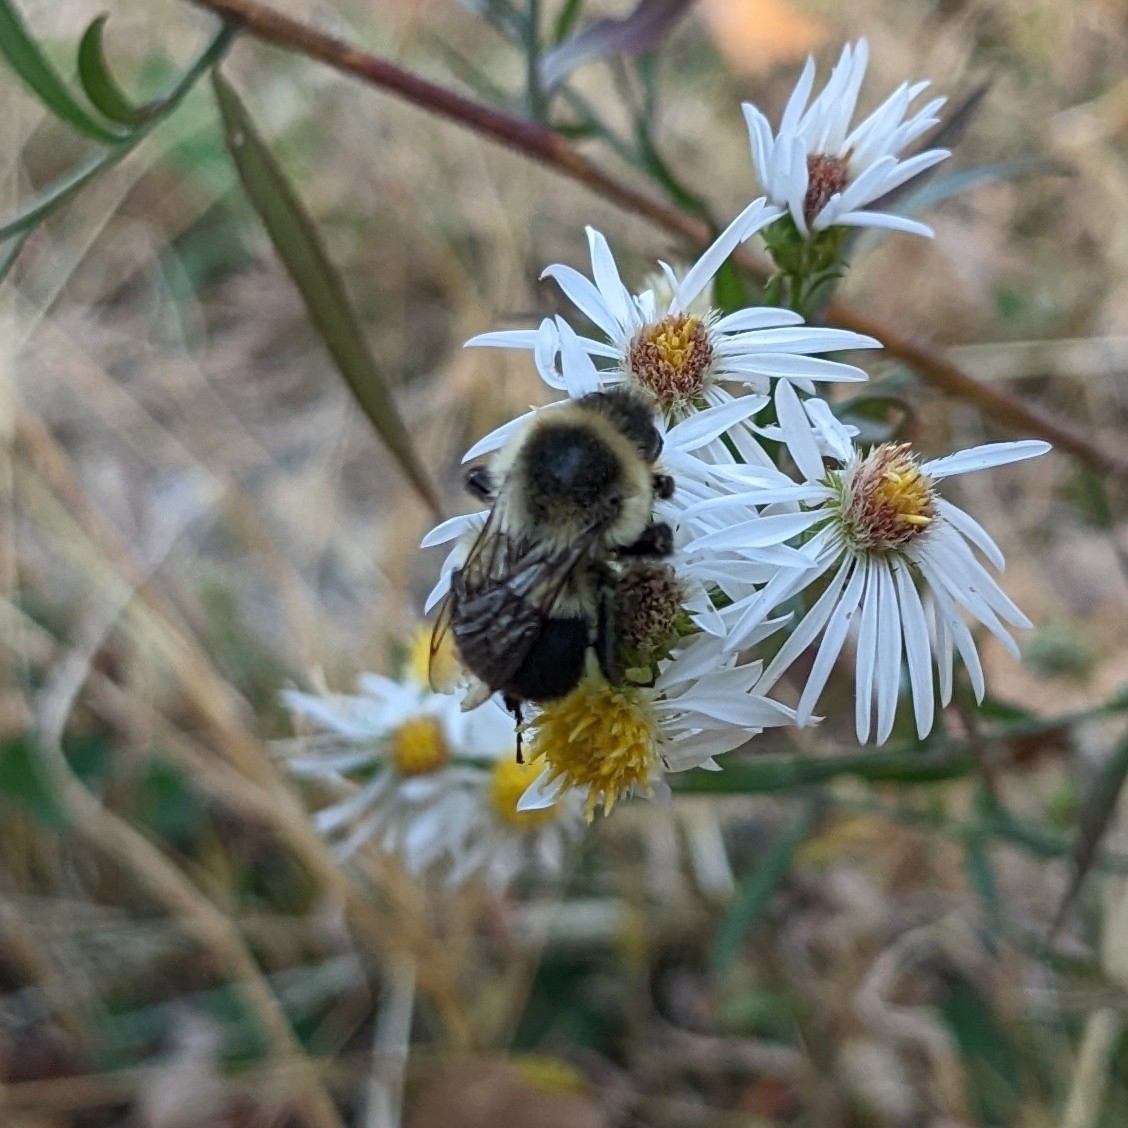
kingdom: Animalia
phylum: Arthropoda
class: Insecta
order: Hymenoptera
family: Apidae
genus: Bombus
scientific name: Bombus impatiens
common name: Common eastern bumble bee
